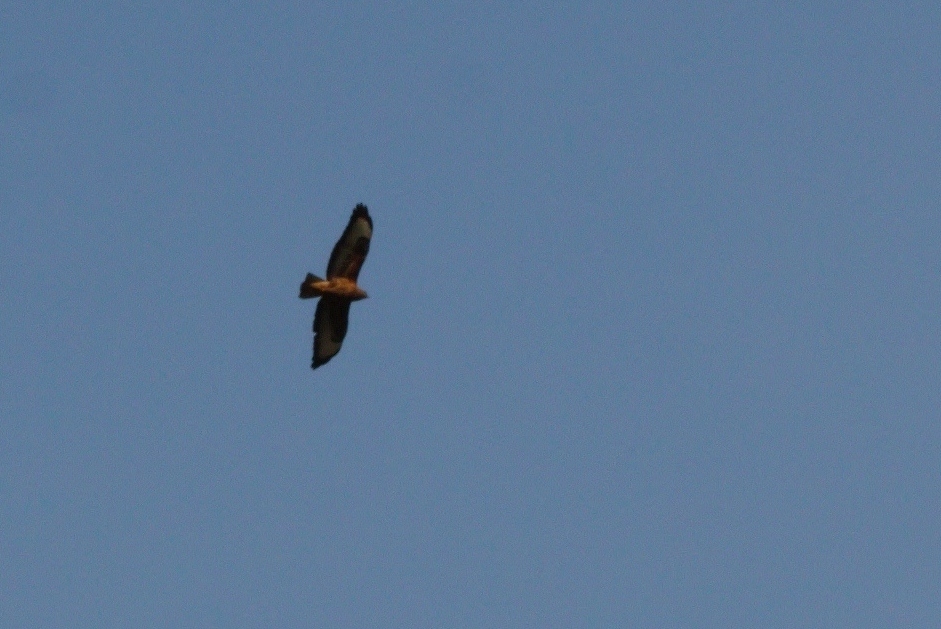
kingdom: Animalia
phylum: Chordata
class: Aves
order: Accipitriformes
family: Accipitridae
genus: Buteo
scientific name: Buteo buteo
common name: Common buzzard
